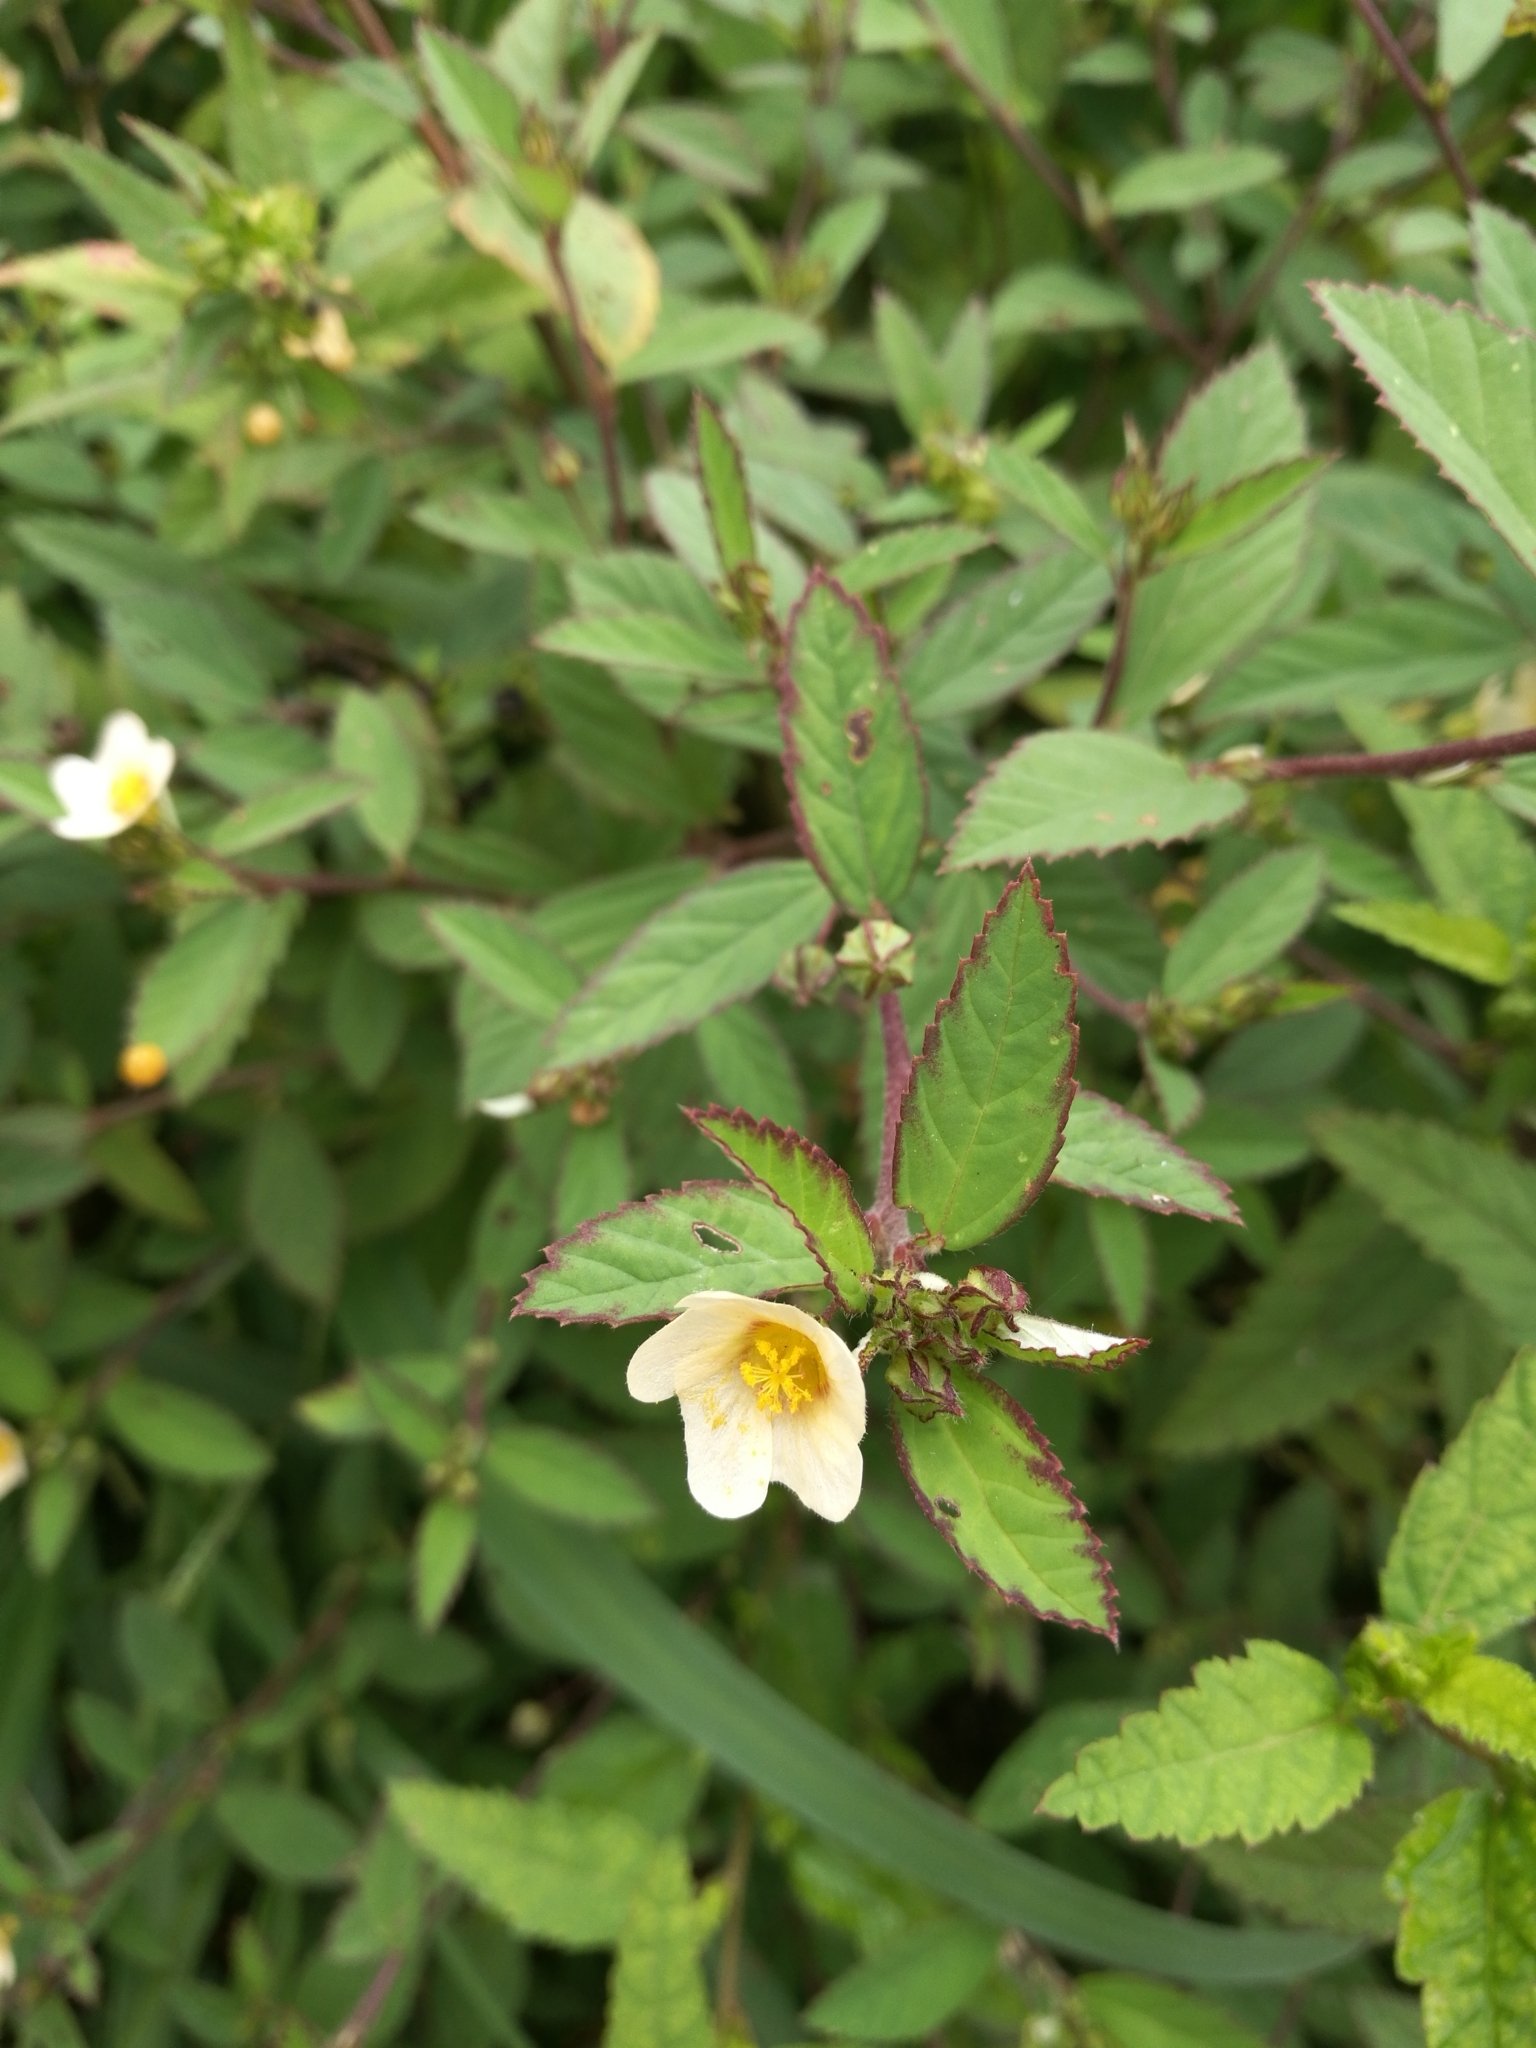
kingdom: Plantae
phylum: Tracheophyta
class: Magnoliopsida
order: Malvales
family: Malvaceae
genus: Sida
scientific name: Sida acuta
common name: Common wireweed
